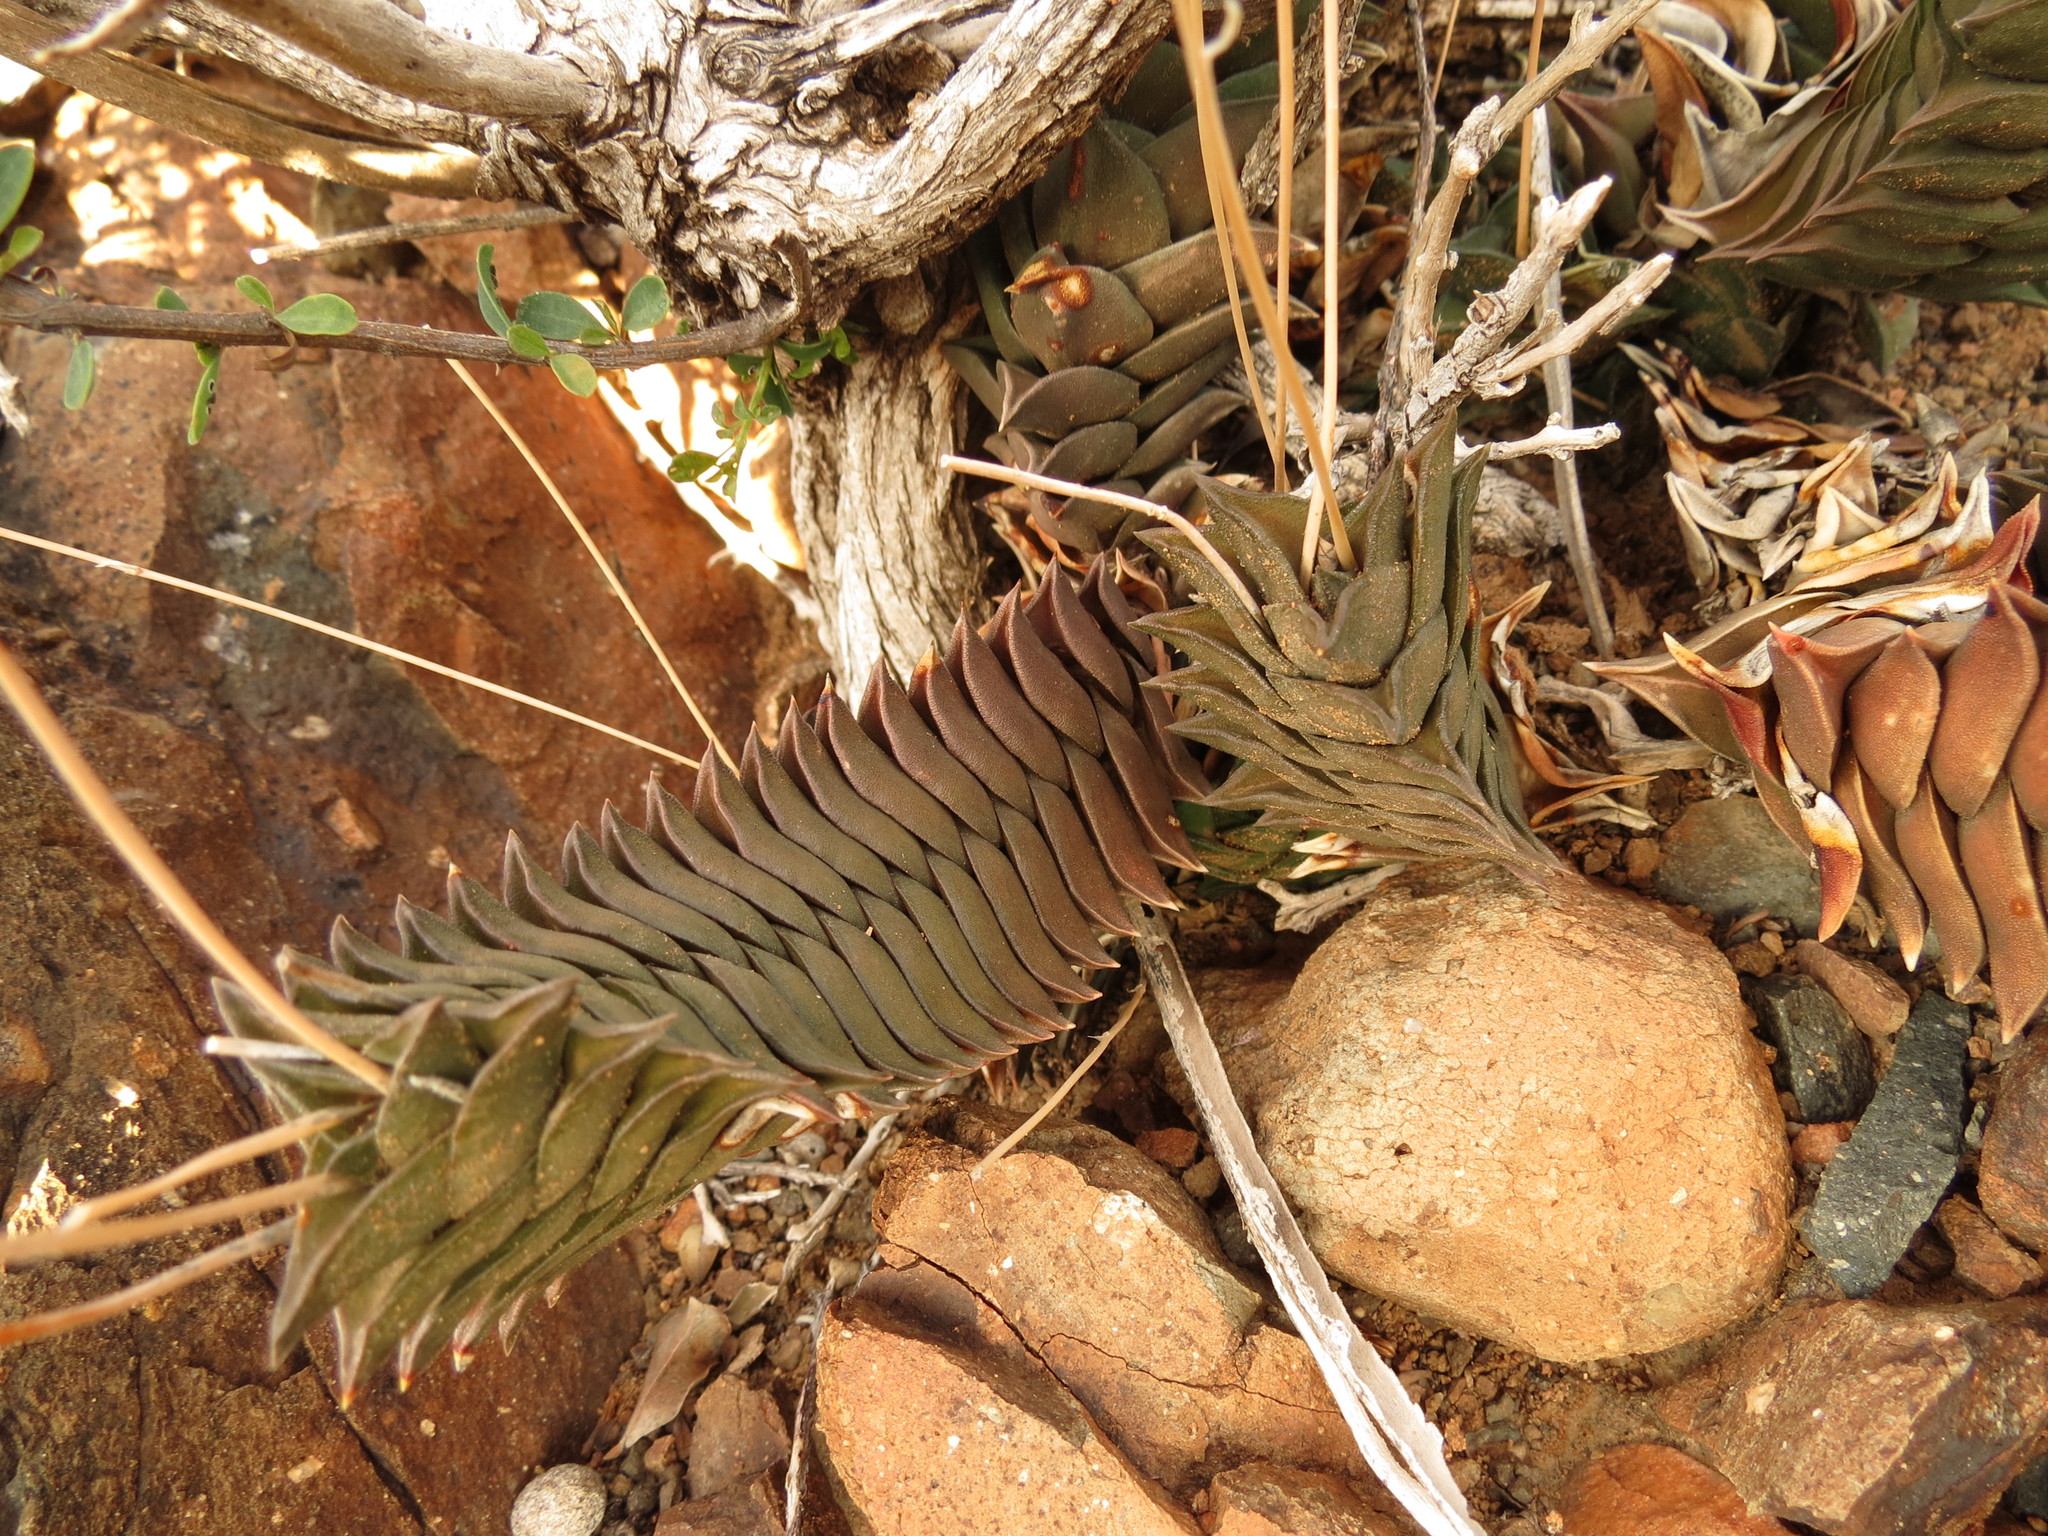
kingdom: Plantae
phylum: Tracheophyta
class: Liliopsida
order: Asparagales
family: Asphodelaceae
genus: Haworthiopsis
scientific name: Haworthiopsis viscosa
